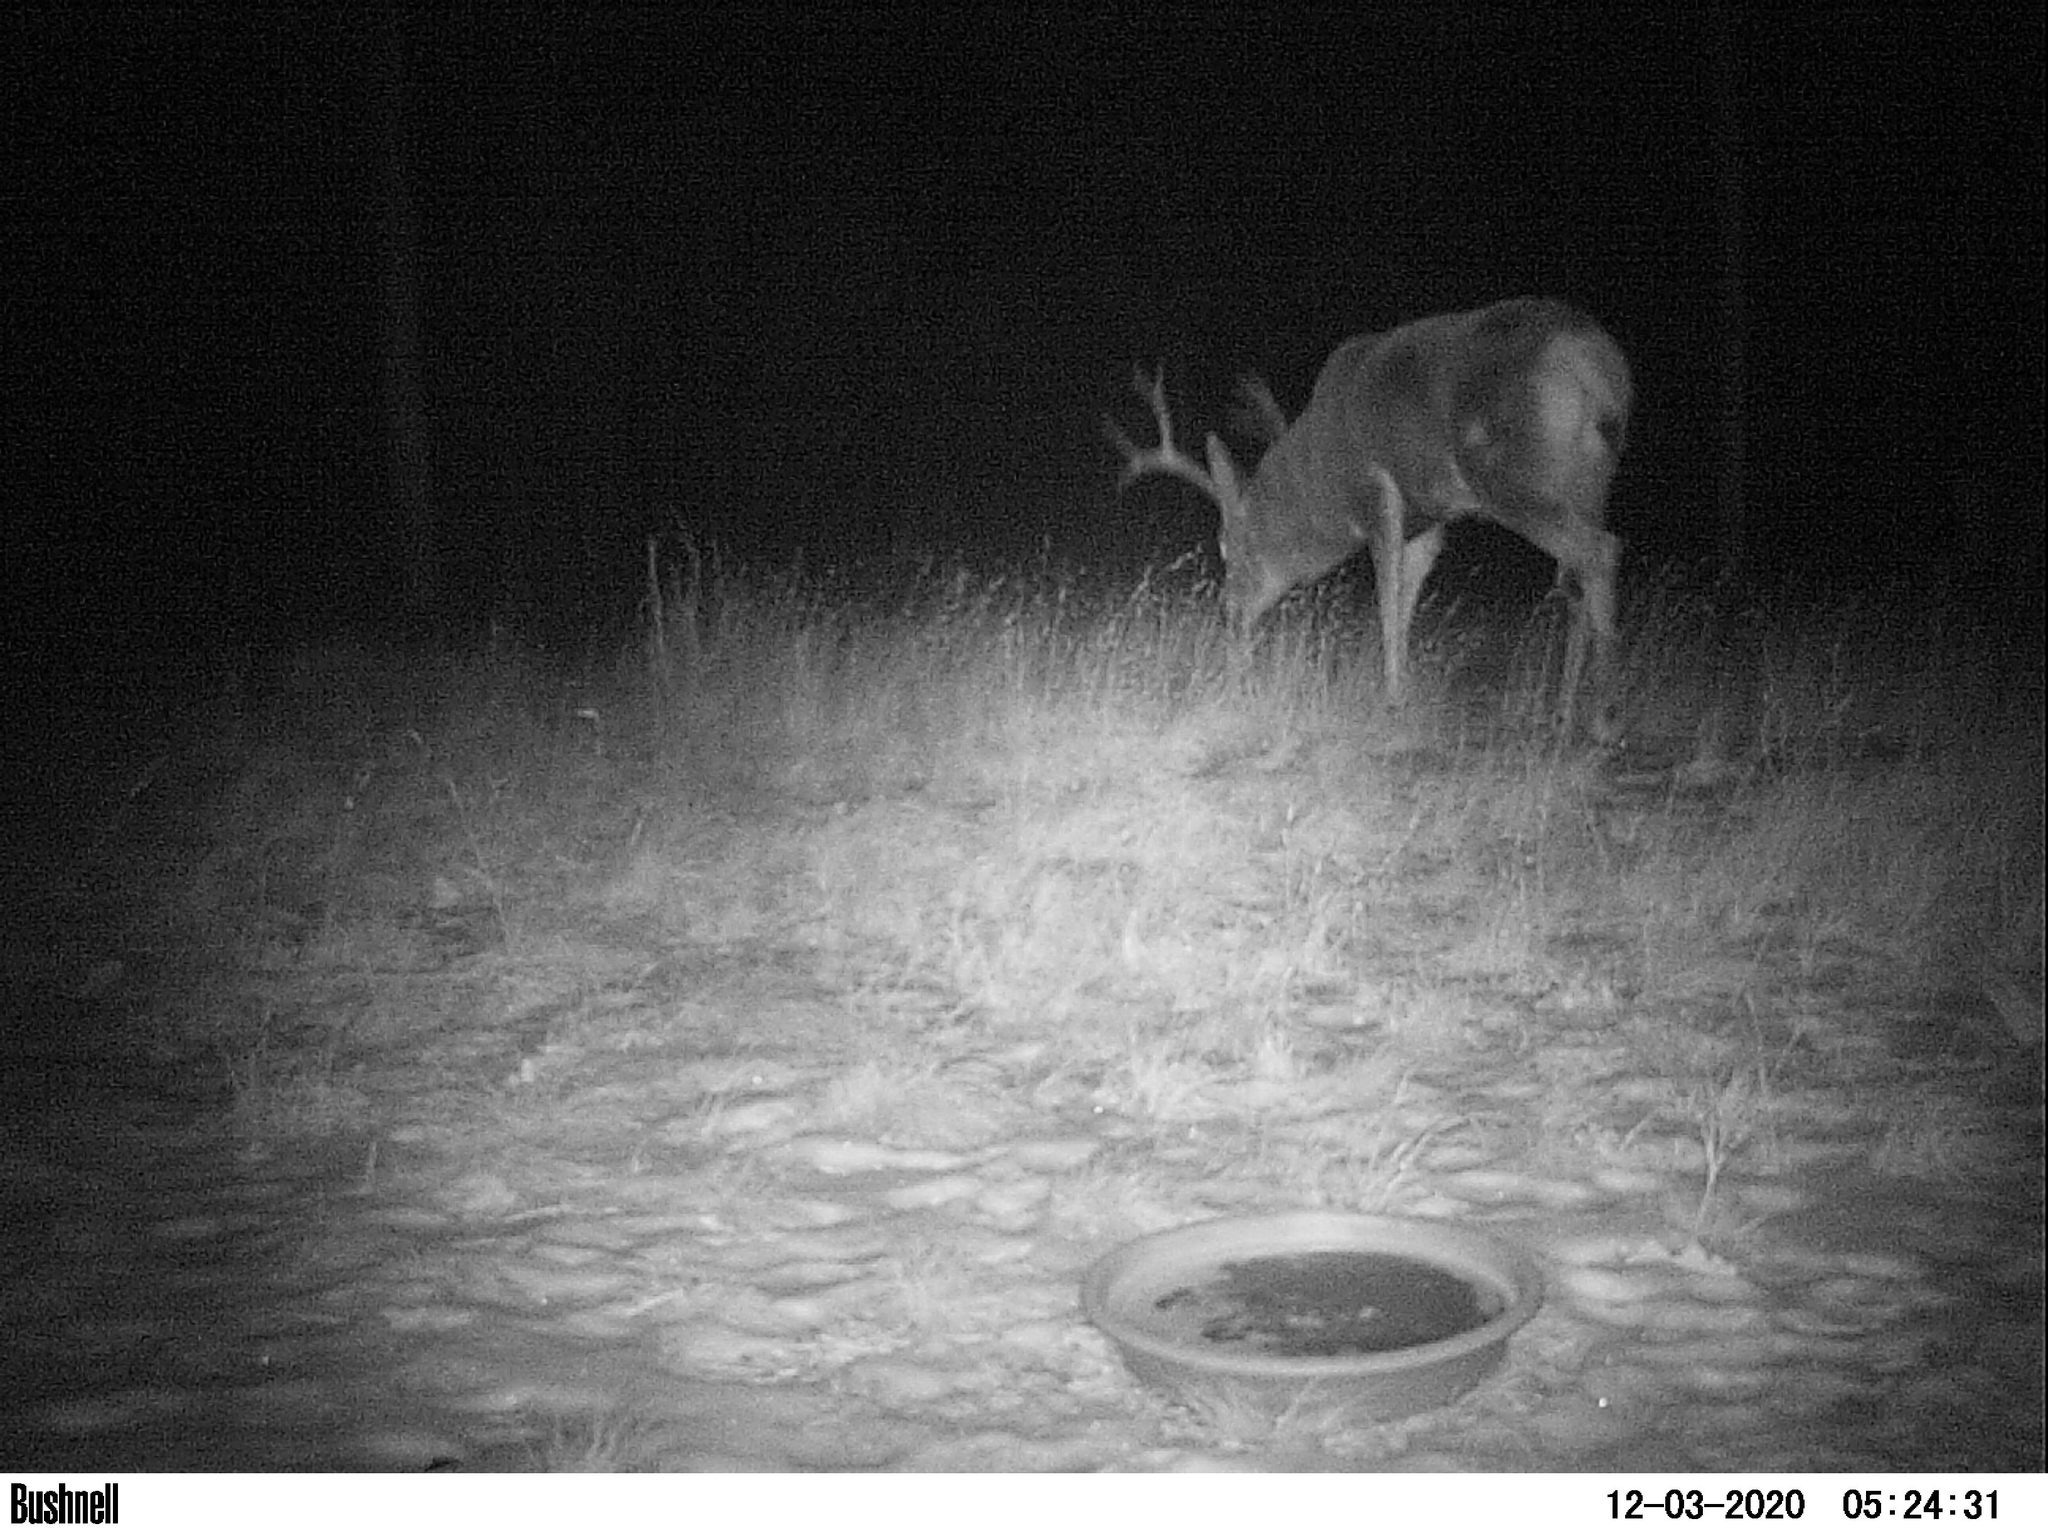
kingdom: Animalia
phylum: Chordata
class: Mammalia
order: Artiodactyla
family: Cervidae
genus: Odocoileus
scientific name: Odocoileus hemionus
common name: Mule deer
